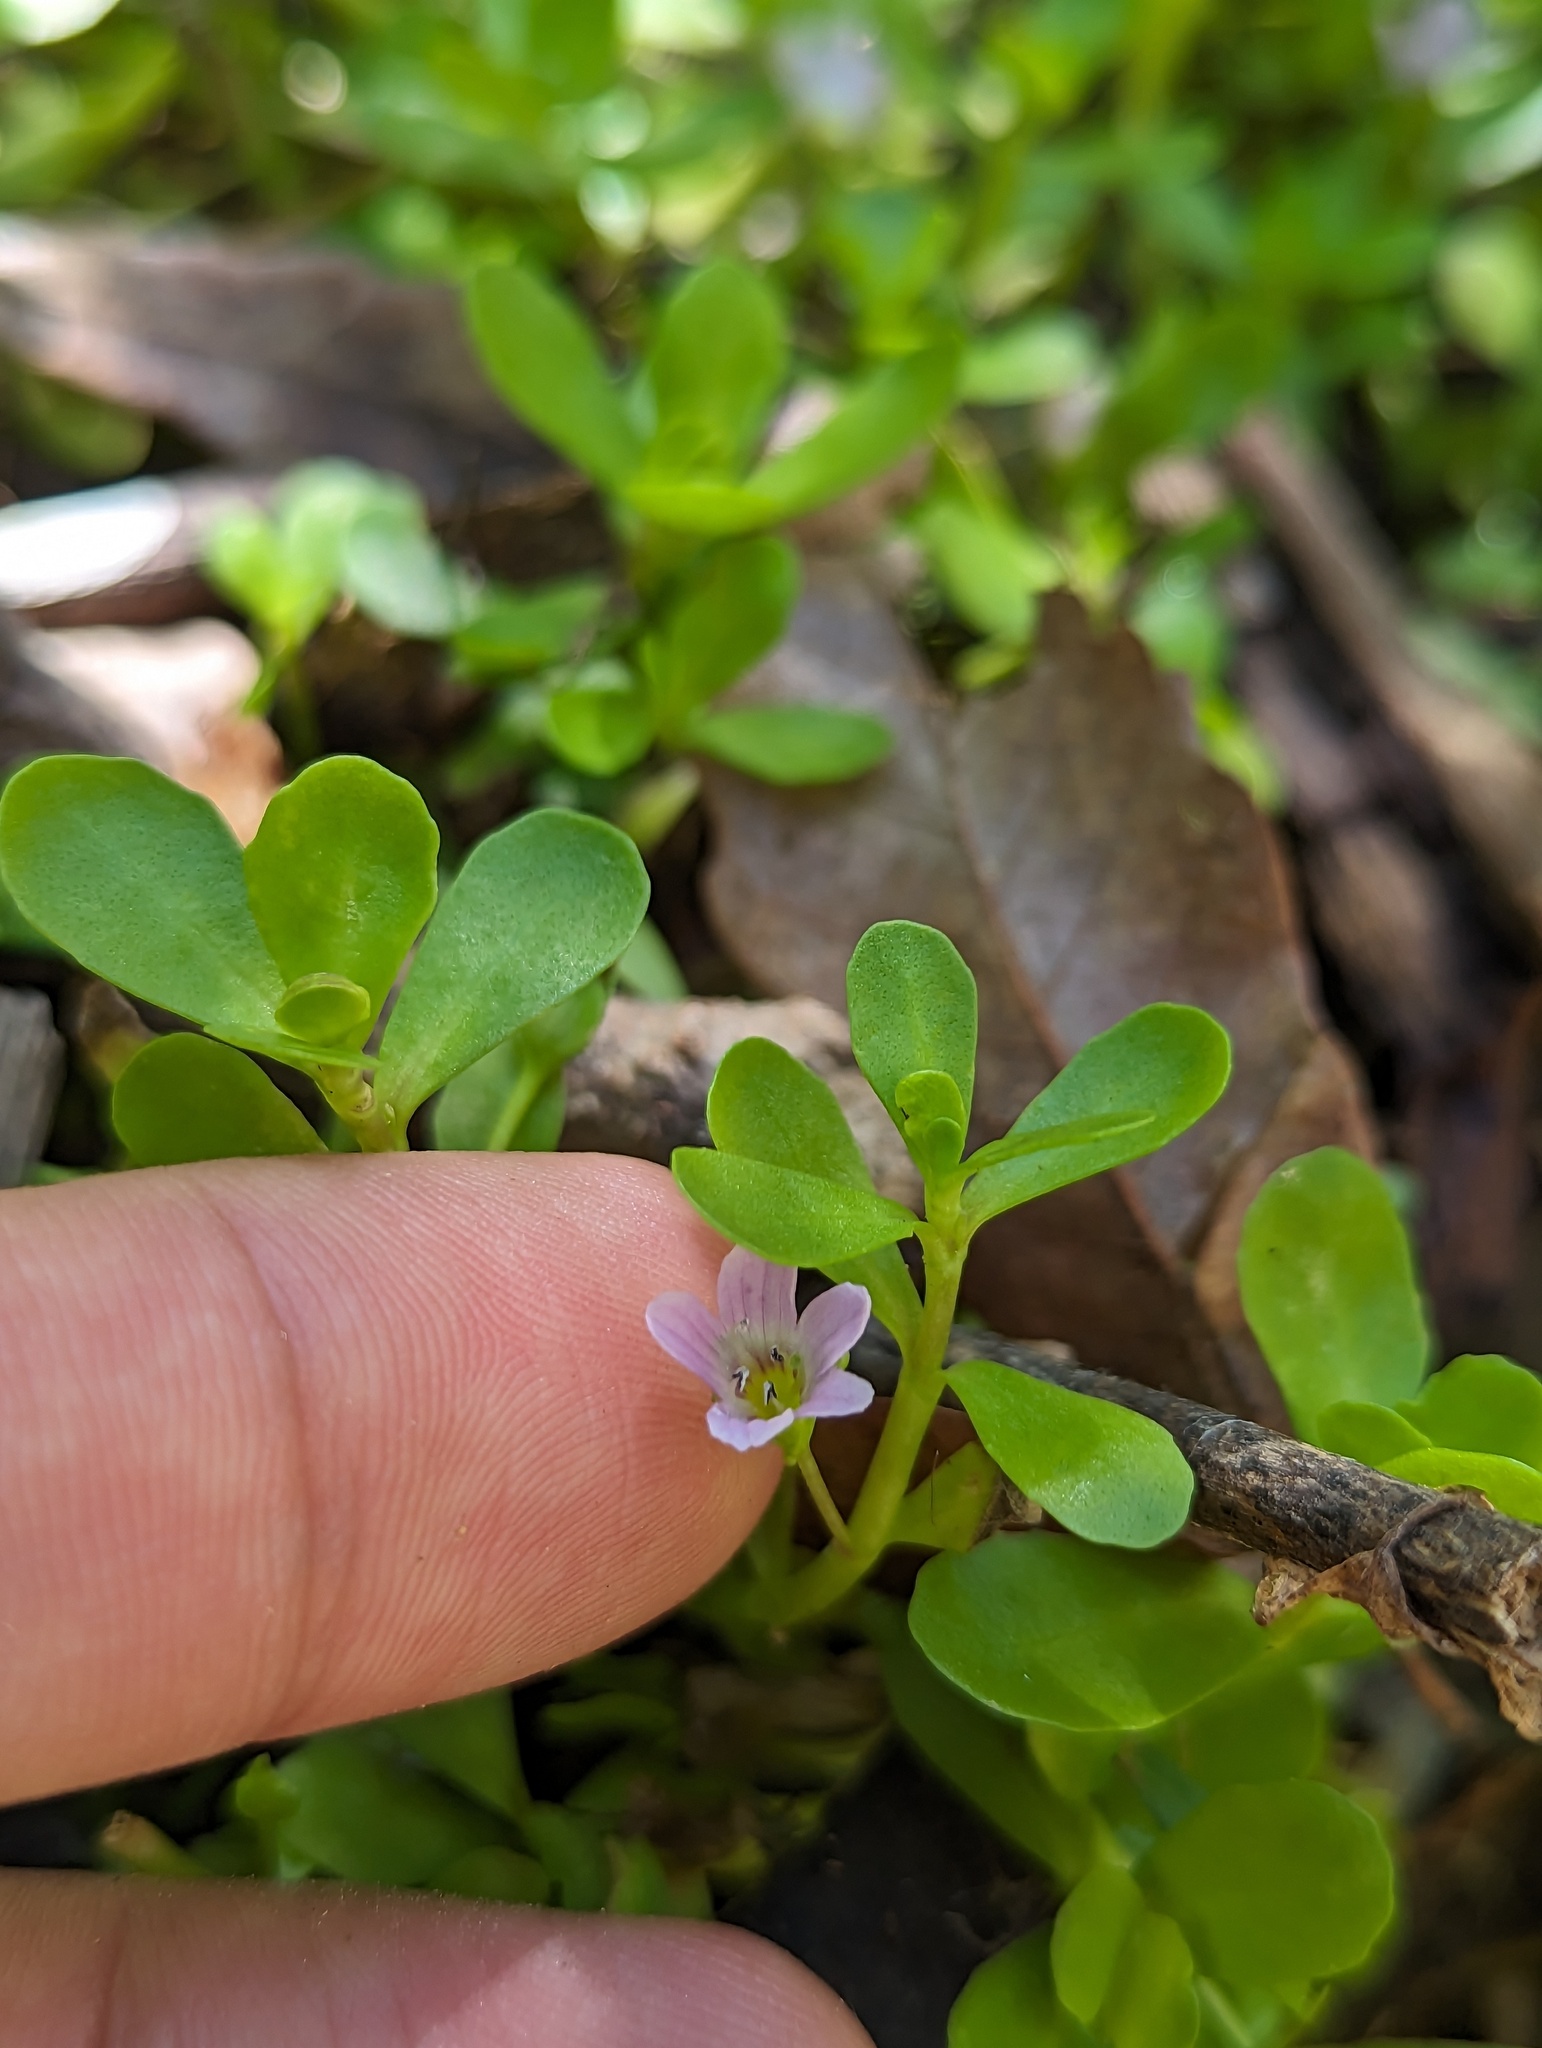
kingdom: Plantae
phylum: Tracheophyta
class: Magnoliopsida
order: Lamiales
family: Plantaginaceae
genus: Bacopa
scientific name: Bacopa monnieri
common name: Indian-pennywort
